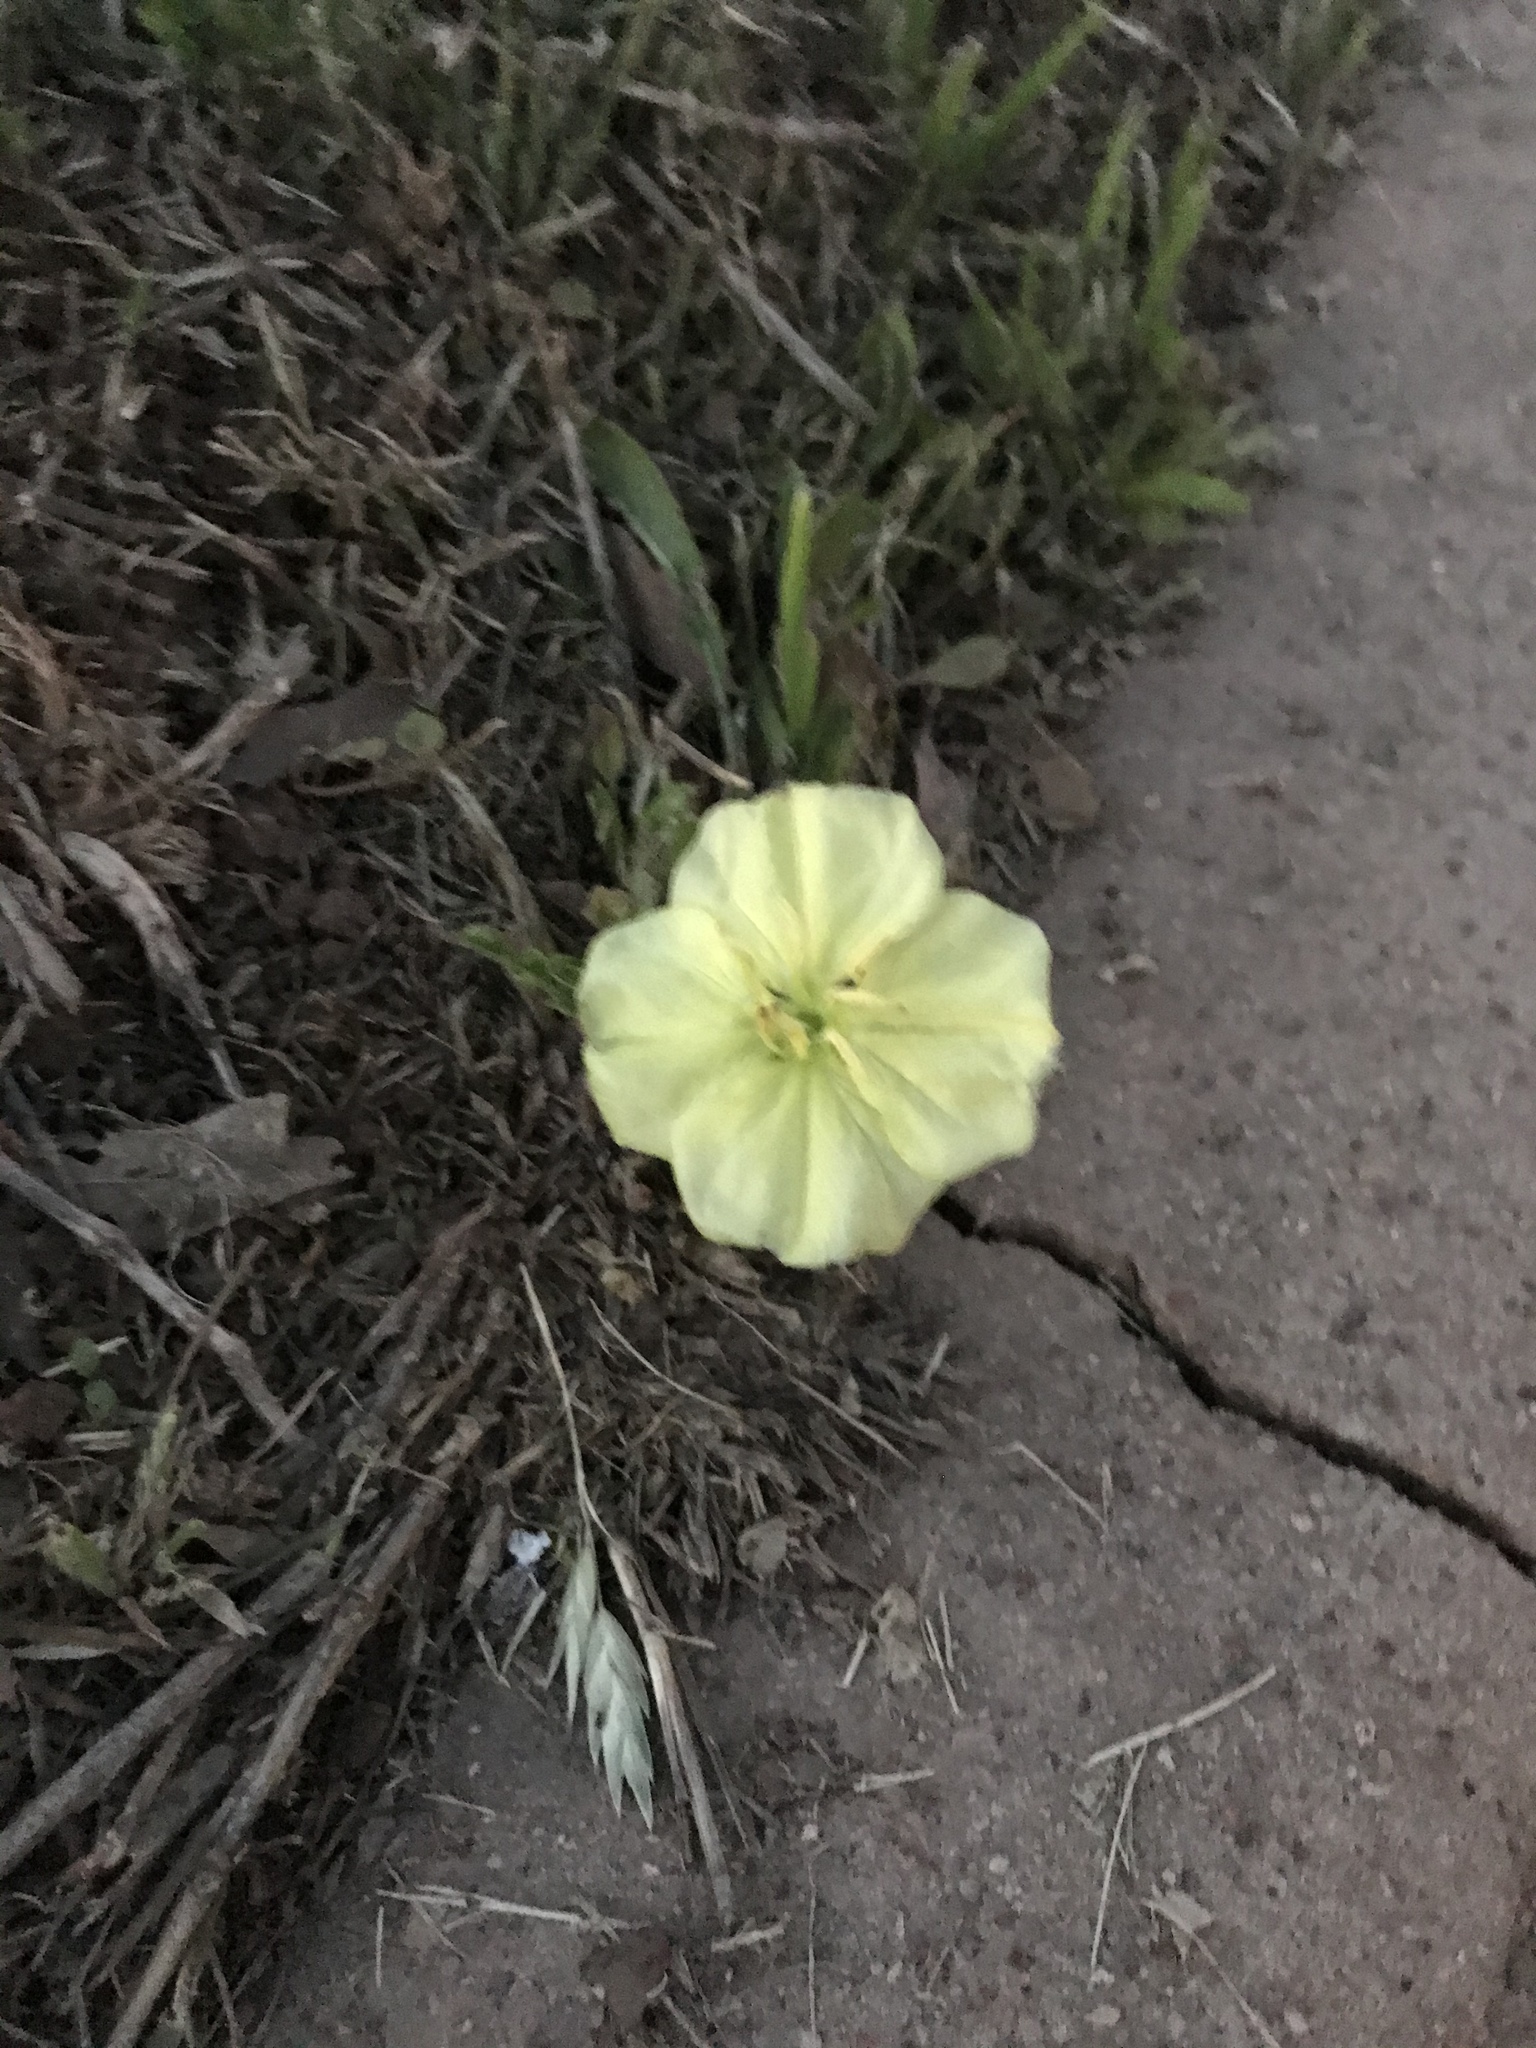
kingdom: Plantae
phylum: Tracheophyta
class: Magnoliopsida
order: Myrtales
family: Onagraceae
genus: Oenothera
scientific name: Oenothera triloba
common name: Sessile evening-primrose
